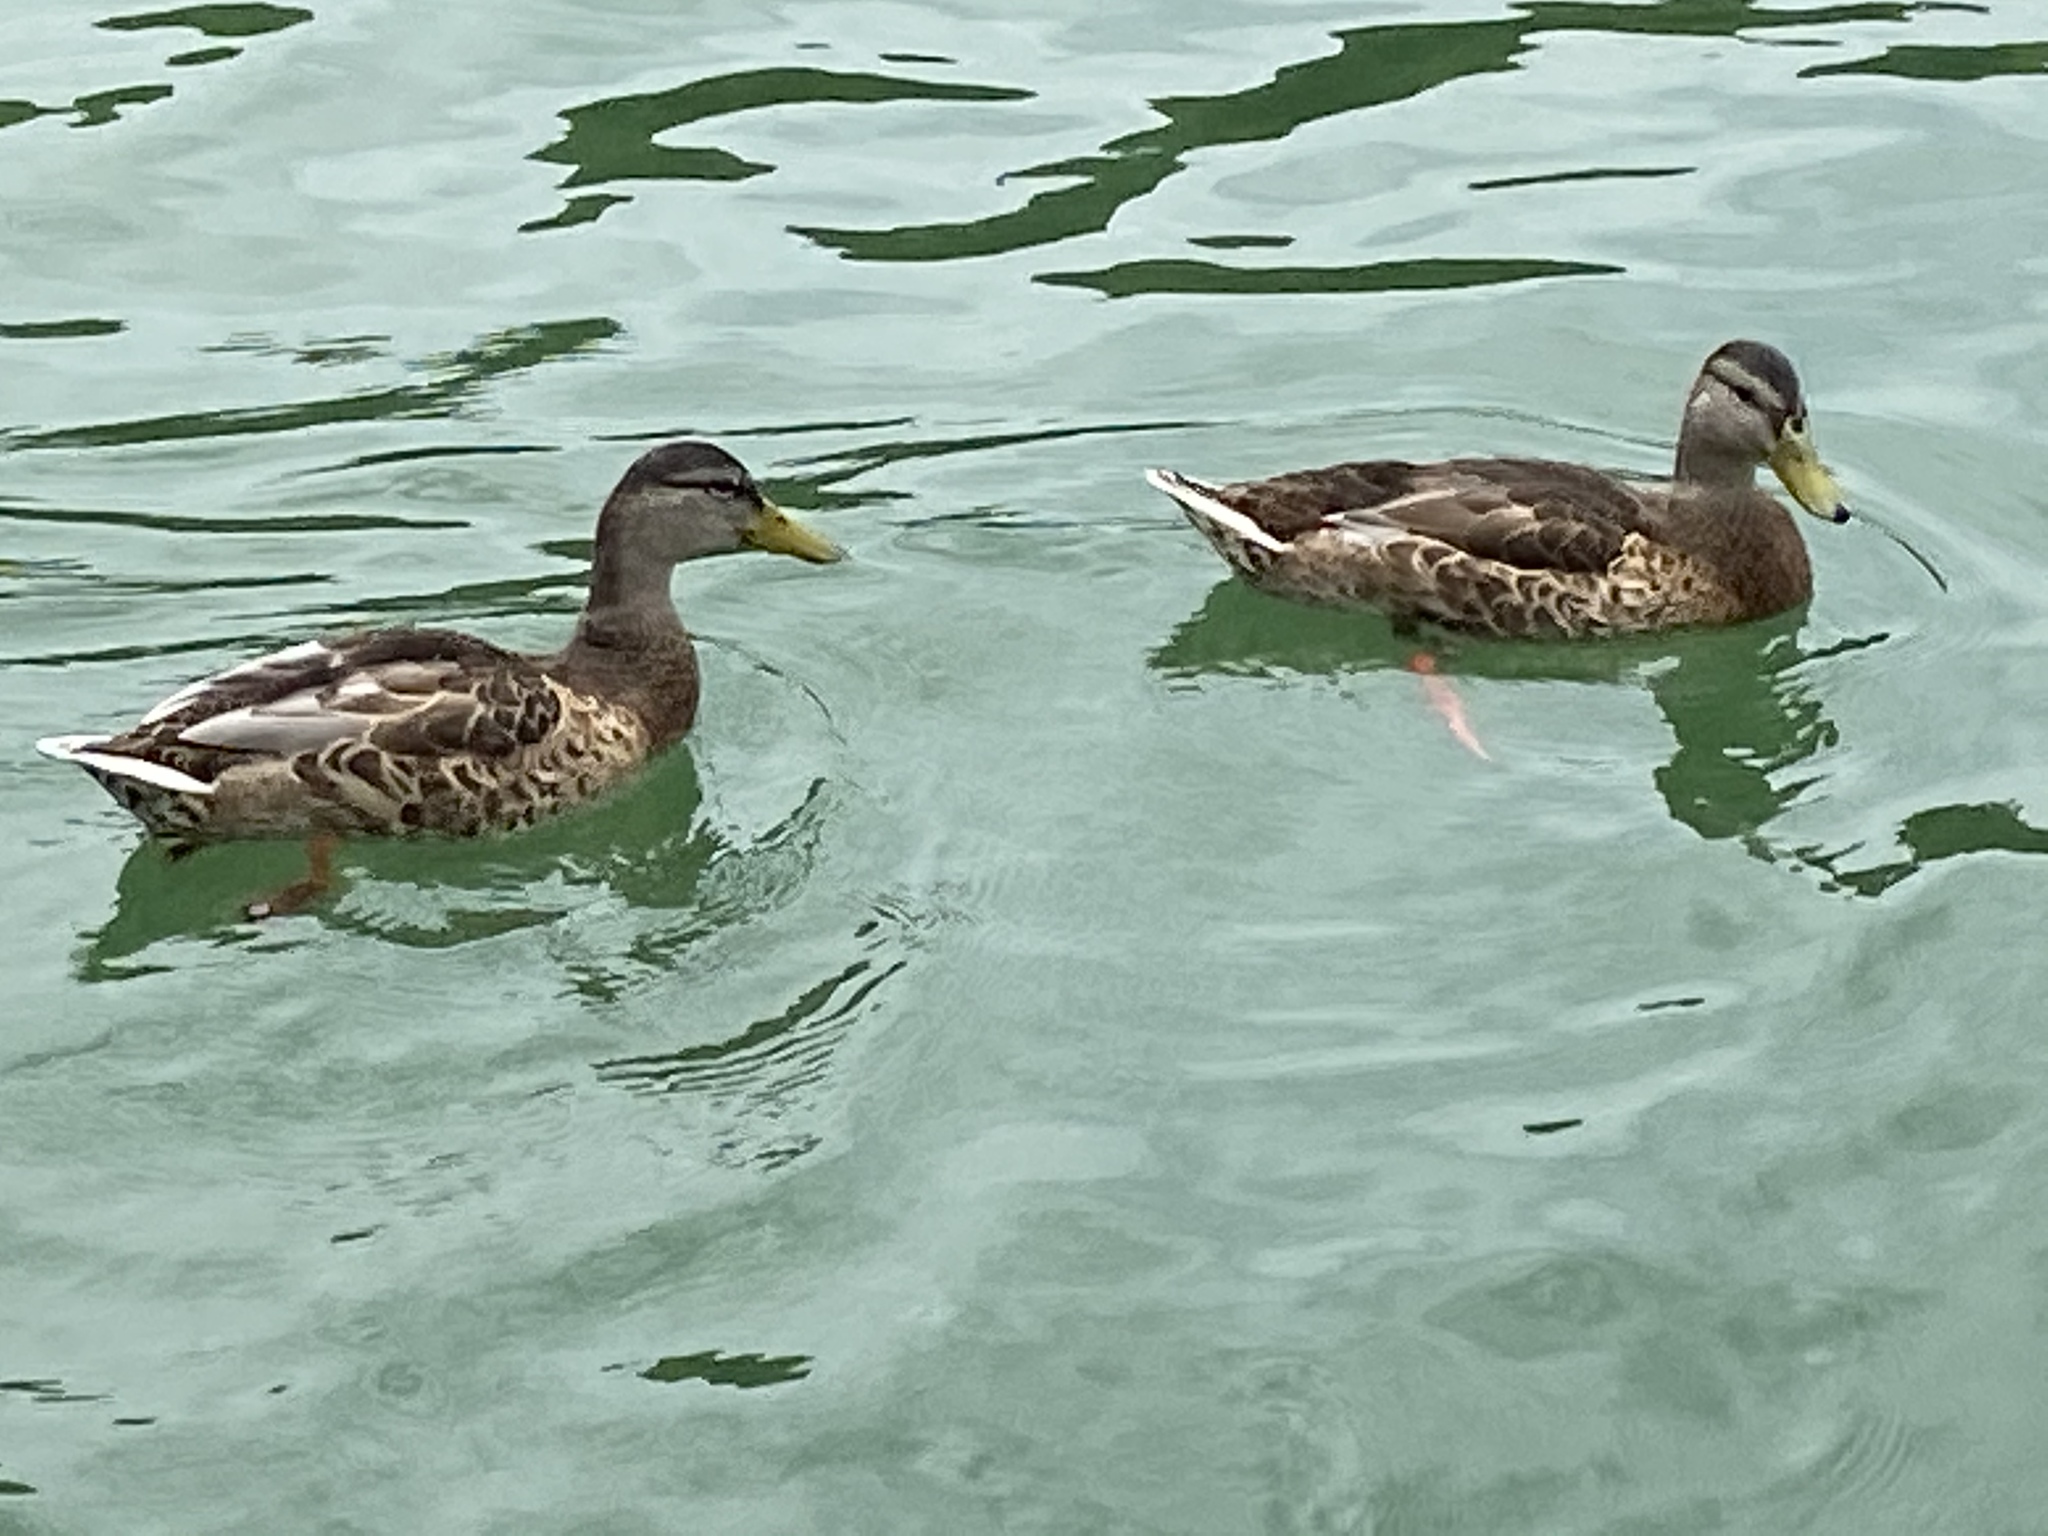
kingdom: Animalia
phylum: Chordata
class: Aves
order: Anseriformes
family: Anatidae
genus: Anas
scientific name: Anas platyrhynchos
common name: Mallard
